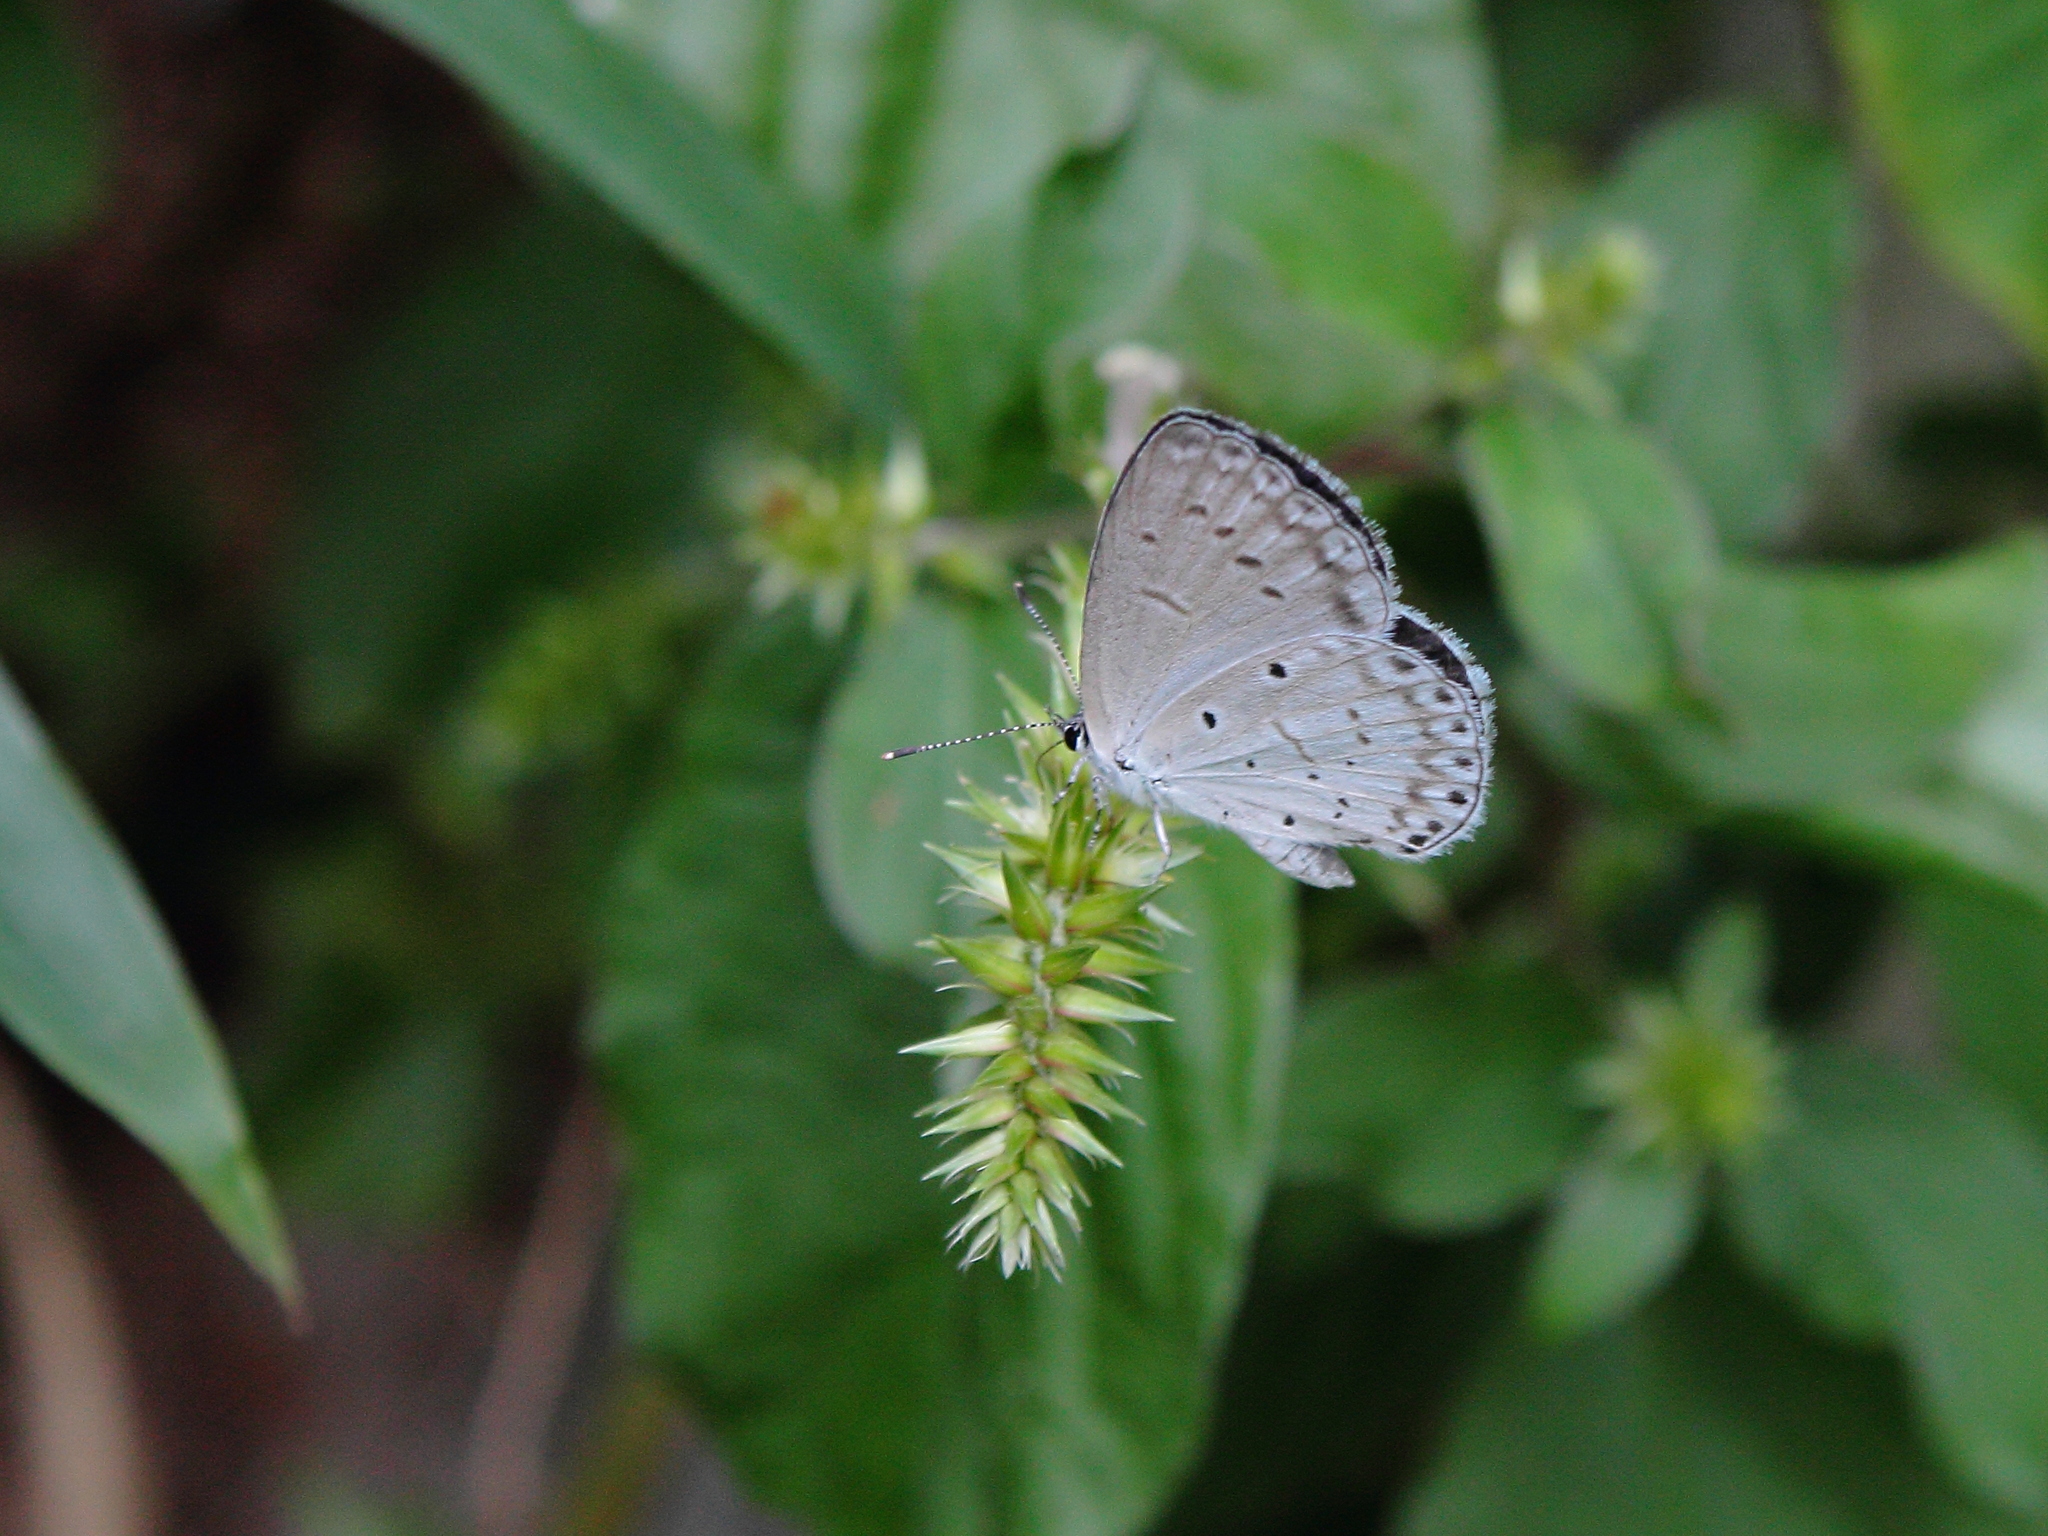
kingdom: Animalia
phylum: Arthropoda
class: Insecta
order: Lepidoptera
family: Lycaenidae
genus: Celastrina
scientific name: Celastrina argiolus
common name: Holly blue
